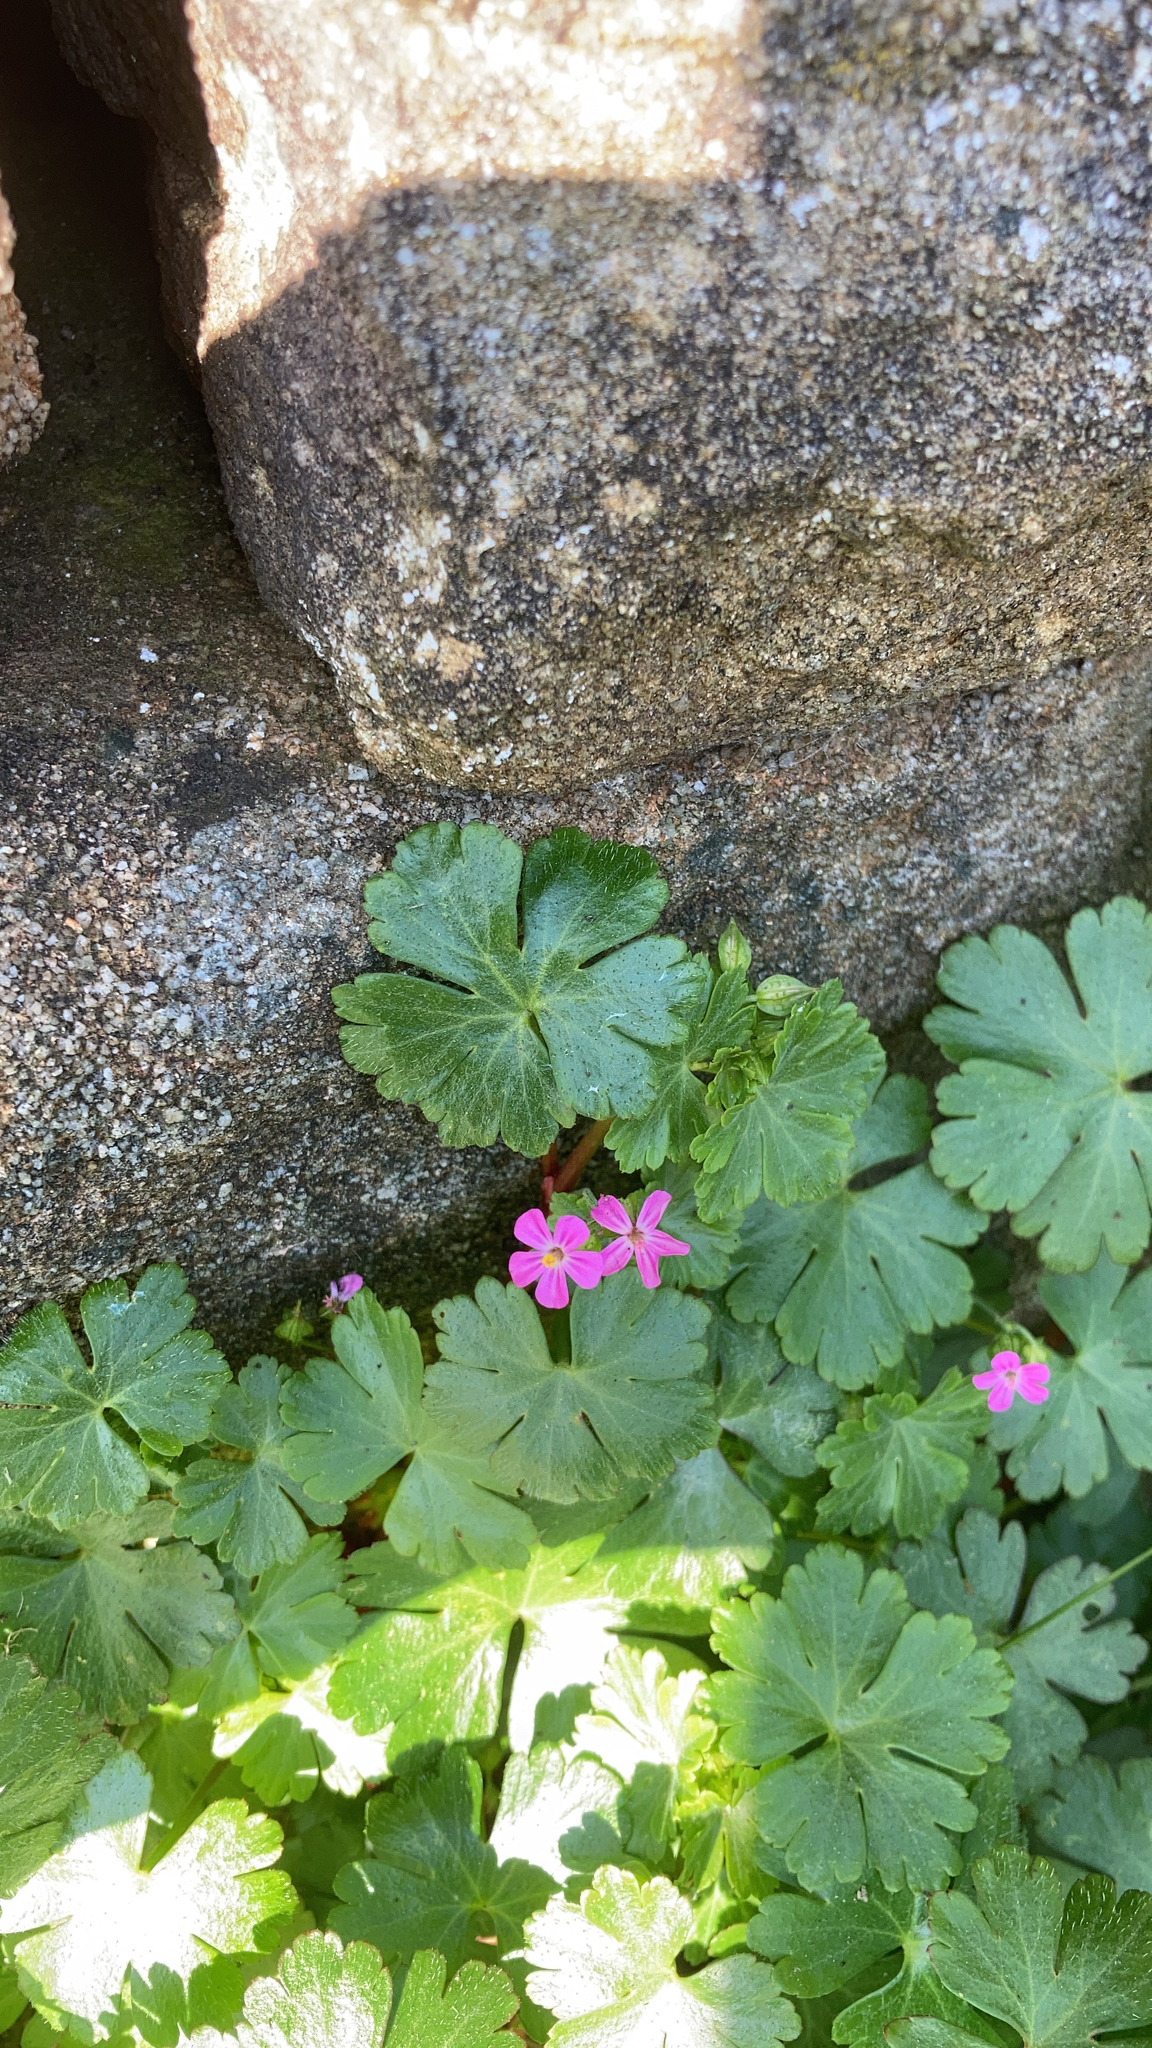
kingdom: Plantae
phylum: Tracheophyta
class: Magnoliopsida
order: Geraniales
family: Geraniaceae
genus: Geranium
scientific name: Geranium lucidum
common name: Shining crane's-bill
